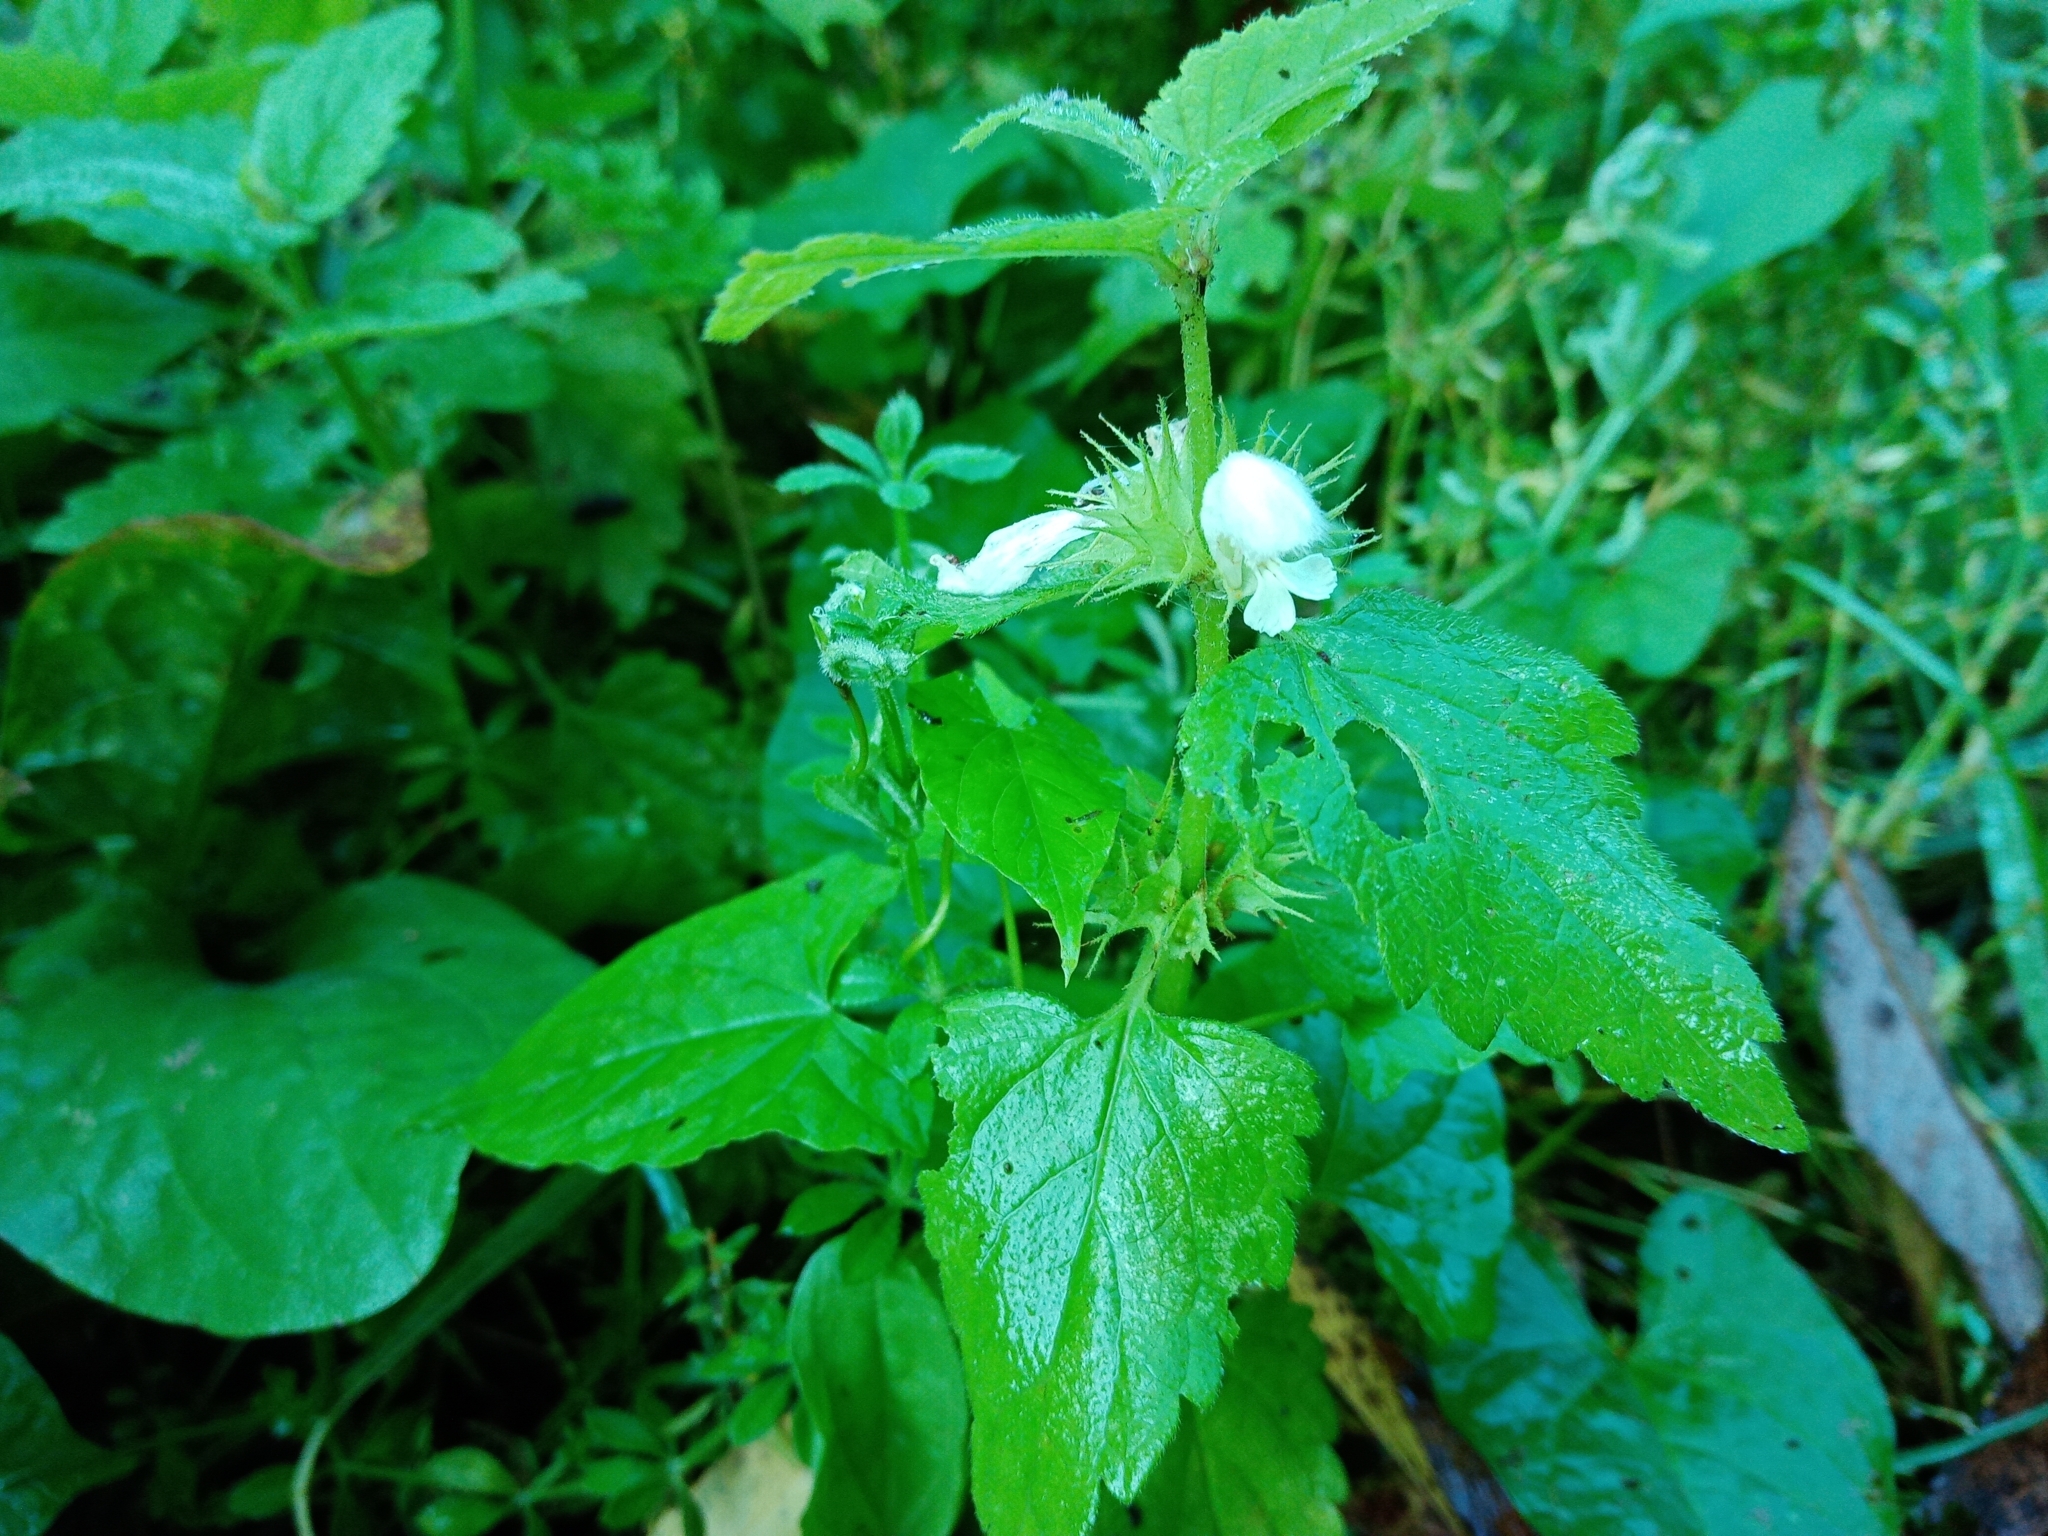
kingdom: Plantae
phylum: Tracheophyta
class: Magnoliopsida
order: Lamiales
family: Lamiaceae
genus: Lamium
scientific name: Lamium album
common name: White dead-nettle
